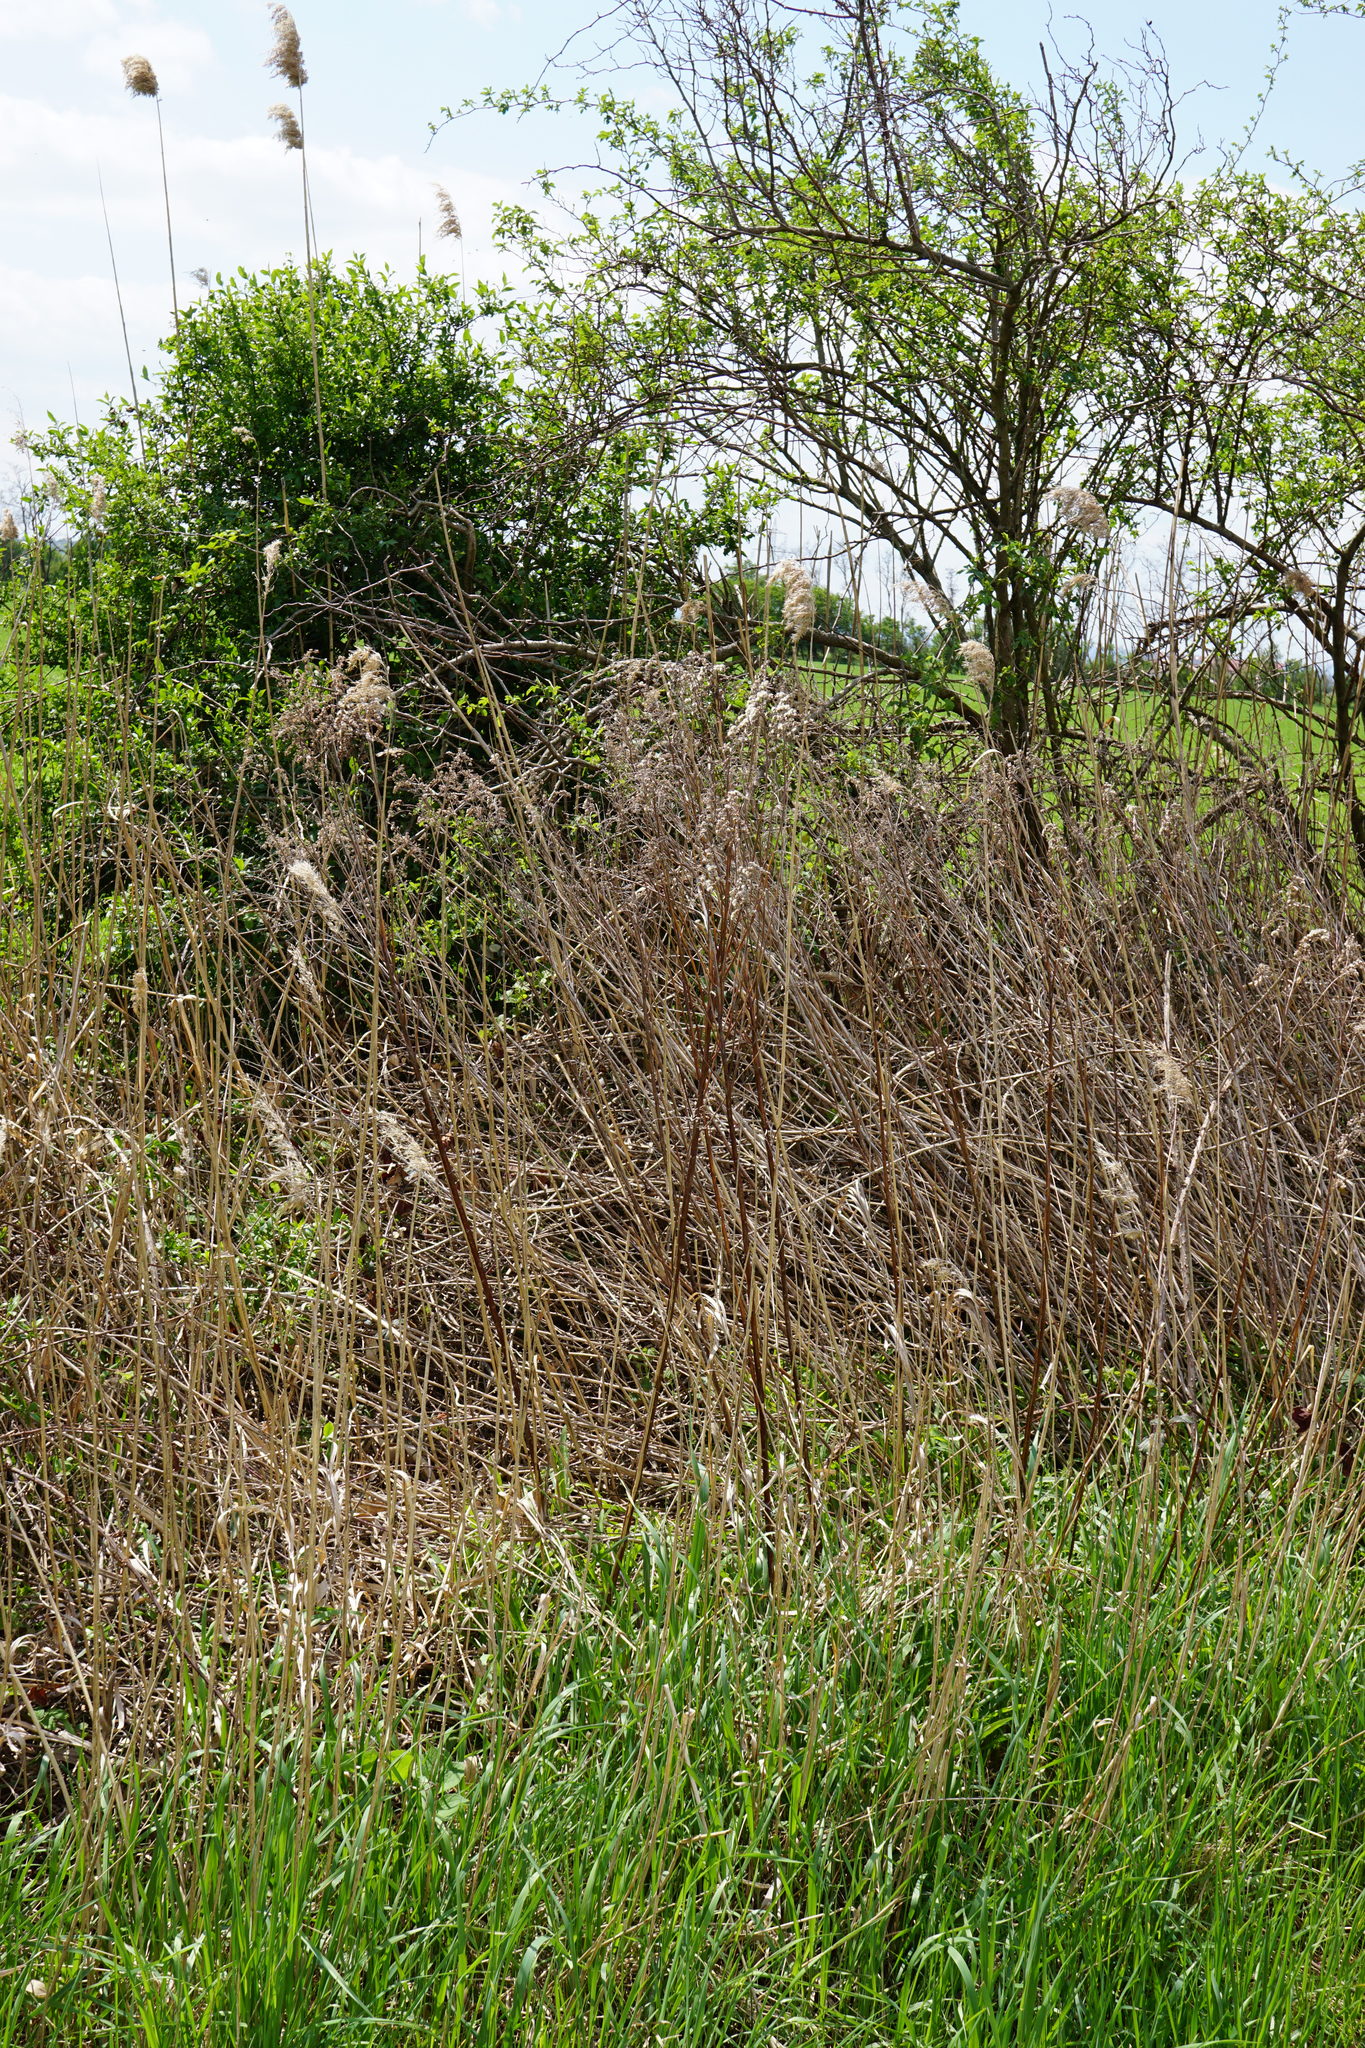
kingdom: Plantae
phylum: Tracheophyta
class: Magnoliopsida
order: Asterales
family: Asteraceae
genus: Solidago
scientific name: Solidago gigantea
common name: Giant goldenrod
